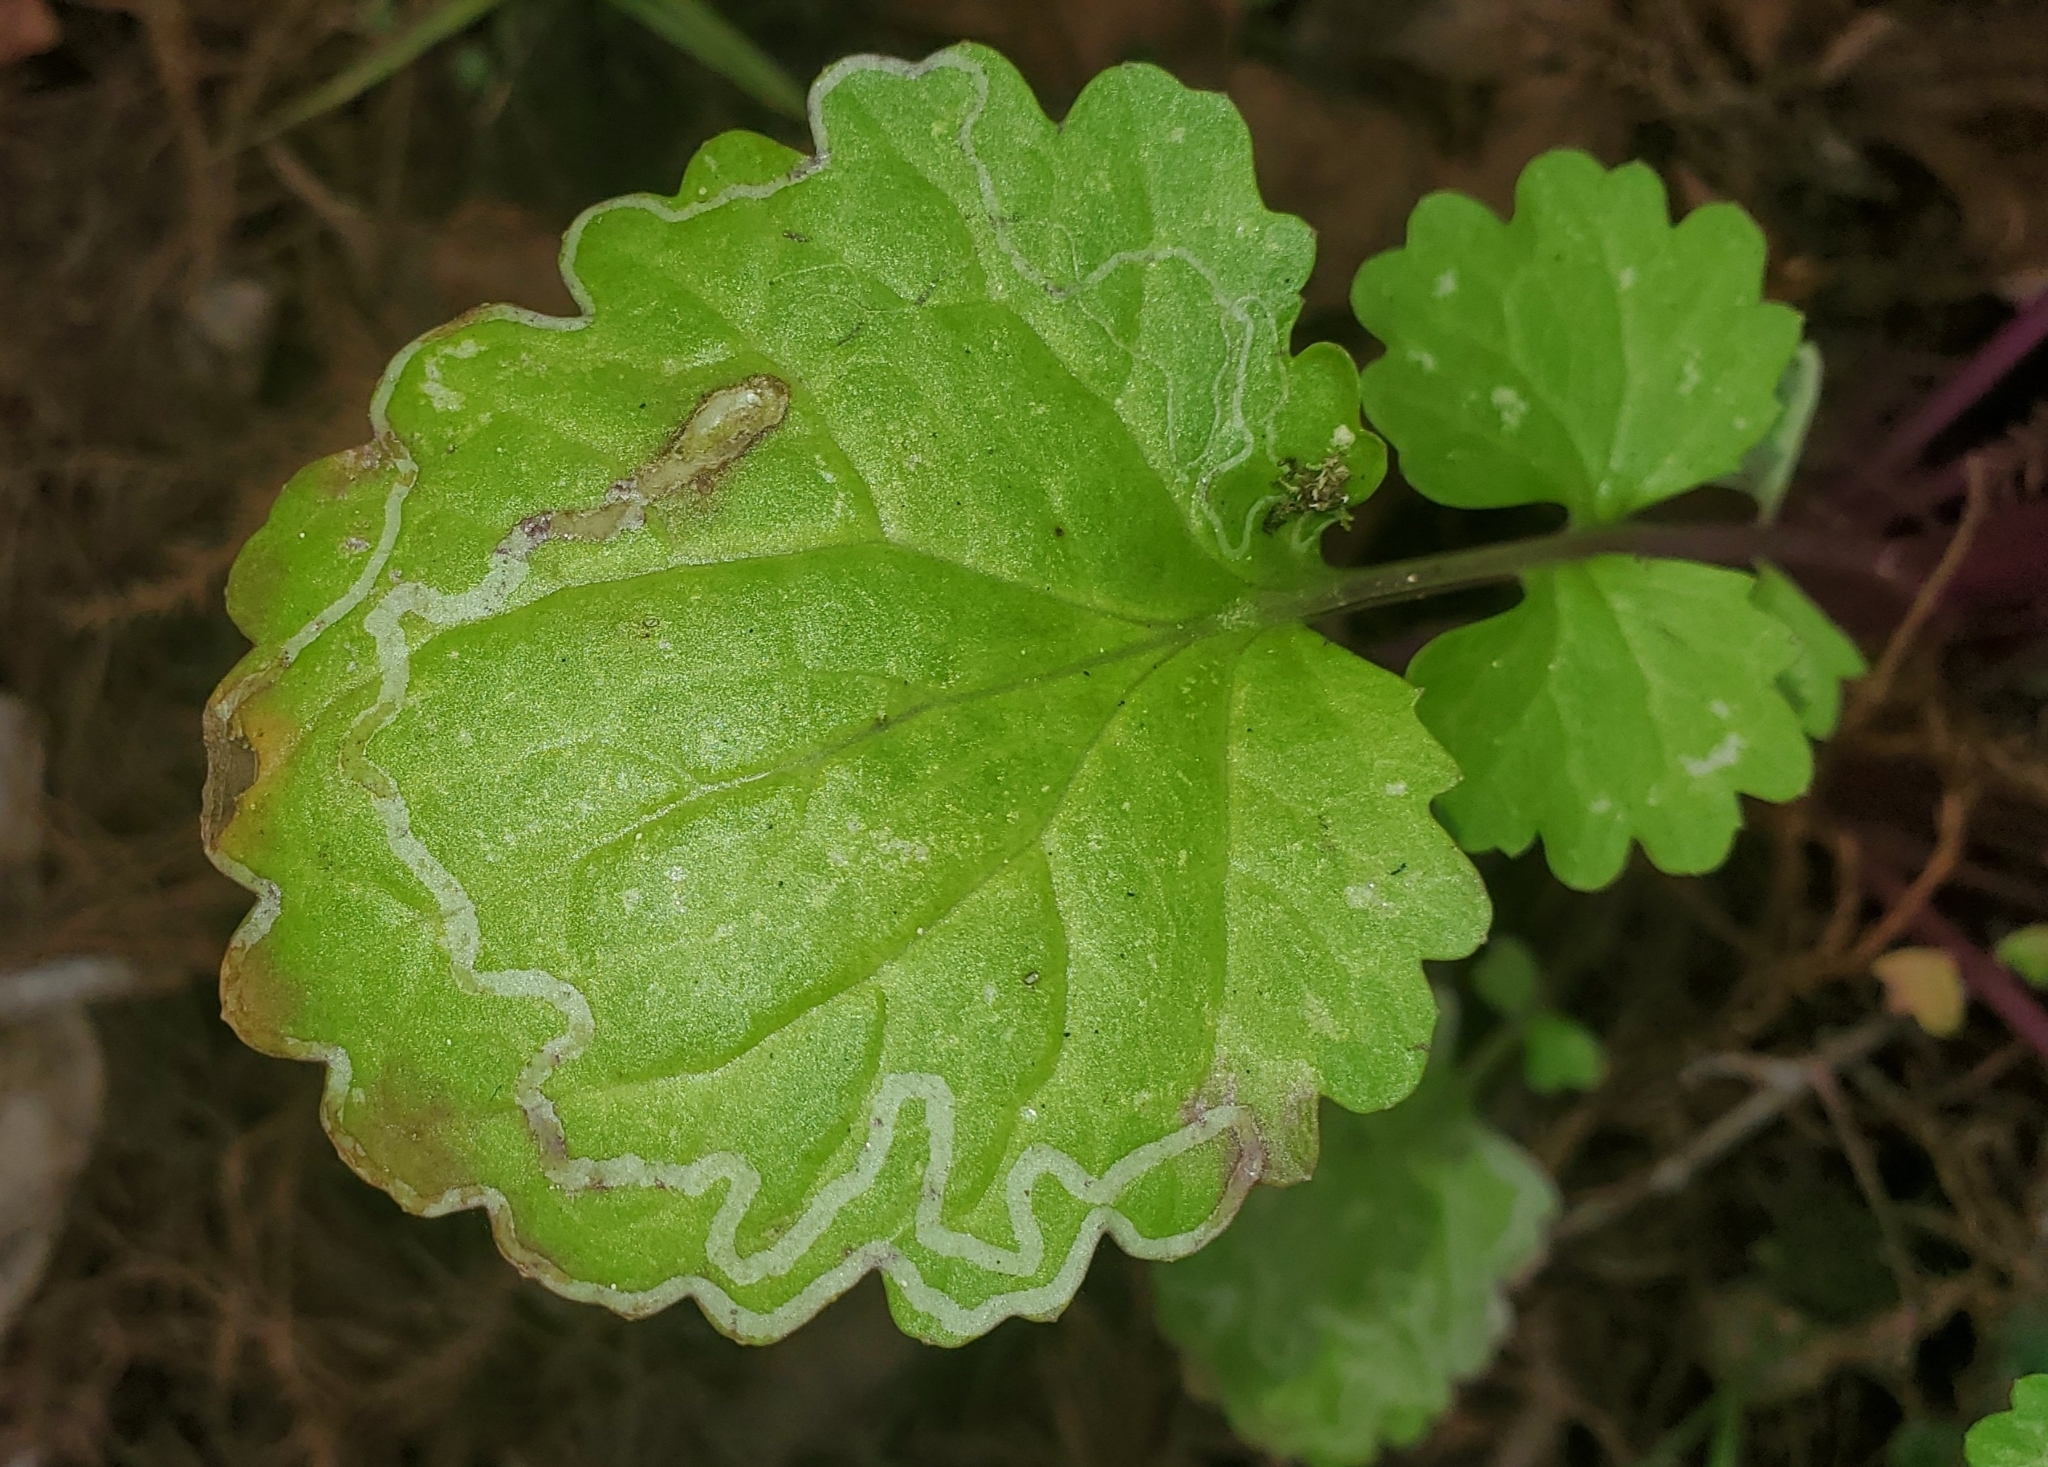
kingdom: Animalia
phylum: Arthropoda
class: Insecta
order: Lepidoptera
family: Gracillariidae
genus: Phyllocnistis
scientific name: Phyllocnistis insignis
